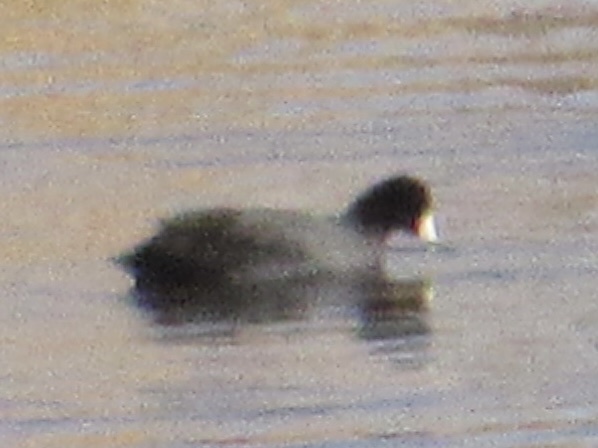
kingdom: Animalia
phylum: Chordata
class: Aves
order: Gruiformes
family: Rallidae
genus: Fulica
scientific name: Fulica americana
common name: American coot
